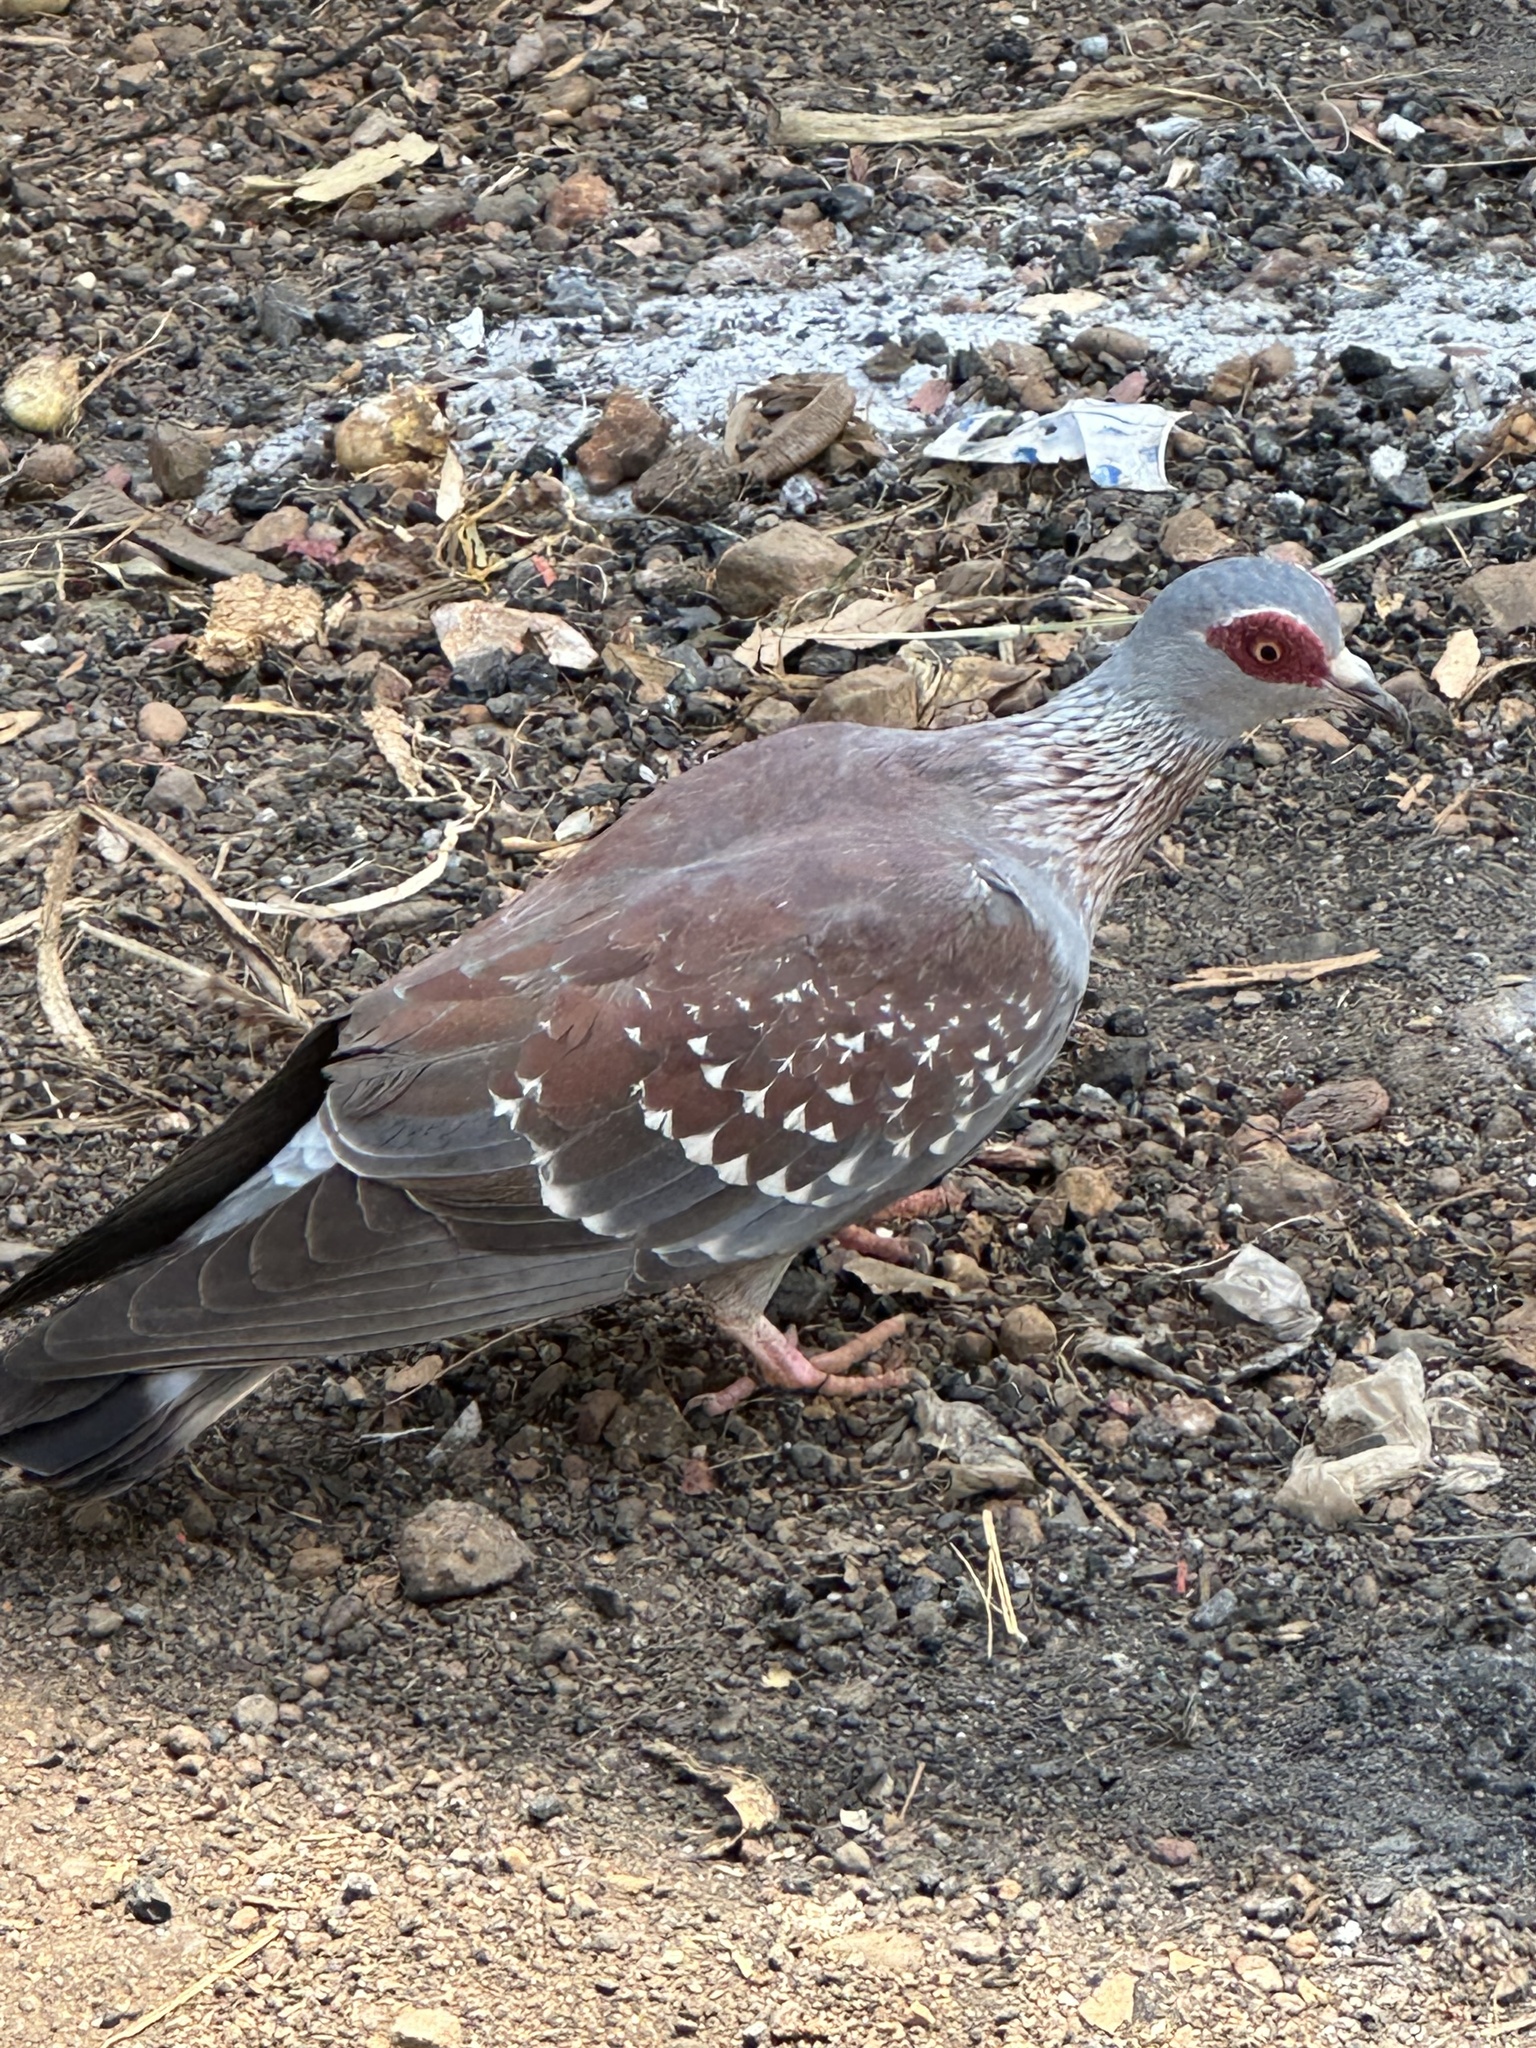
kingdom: Animalia
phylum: Chordata
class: Aves
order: Columbiformes
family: Columbidae
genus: Columba
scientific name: Columba guinea
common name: Speckled pigeon
